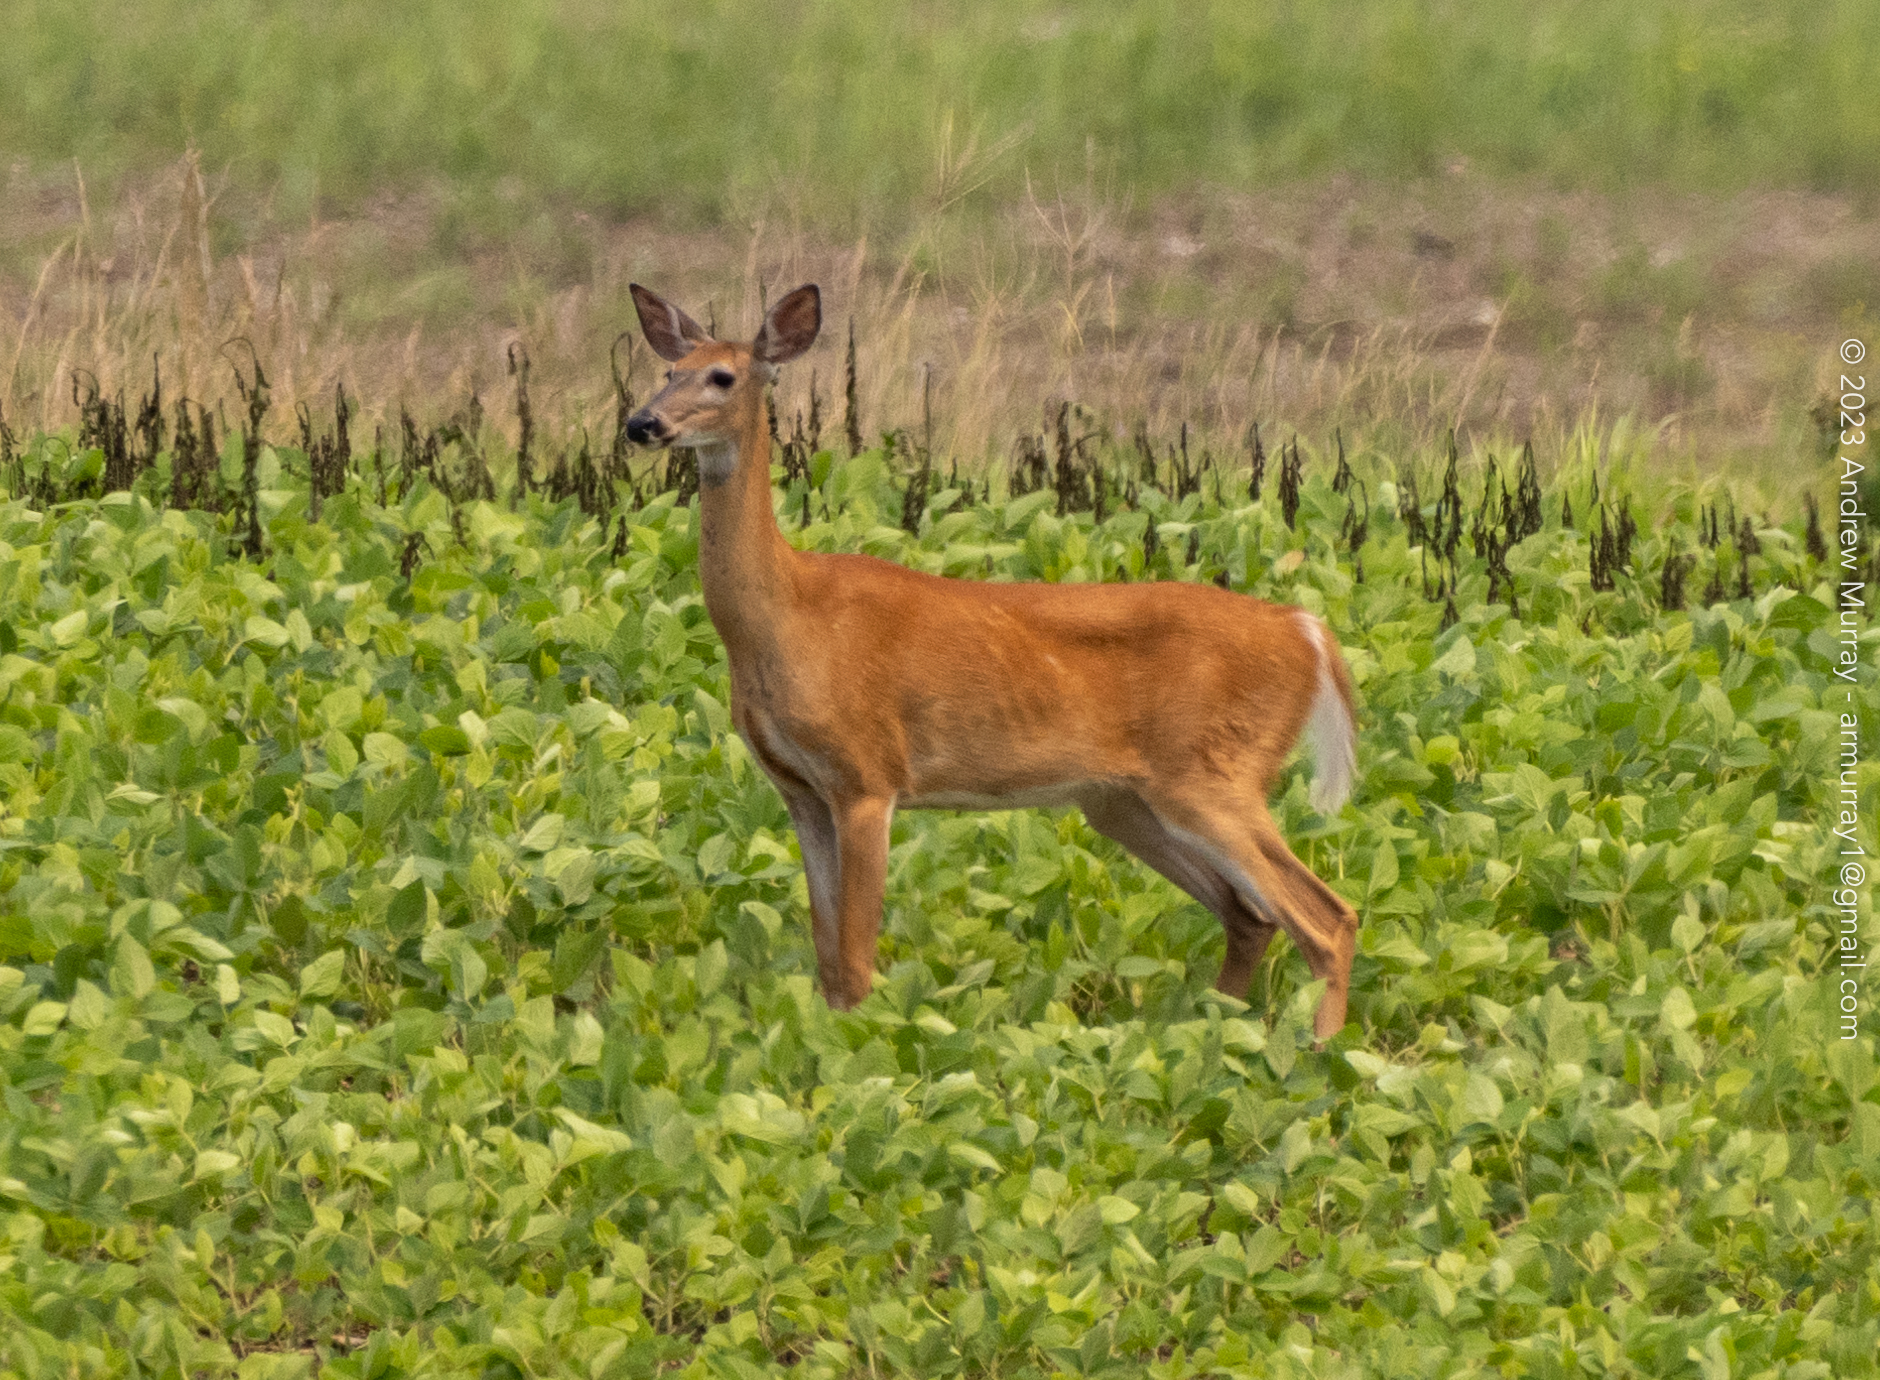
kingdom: Animalia
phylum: Chordata
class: Mammalia
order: Artiodactyla
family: Cervidae
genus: Odocoileus
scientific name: Odocoileus virginianus
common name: White-tailed deer
